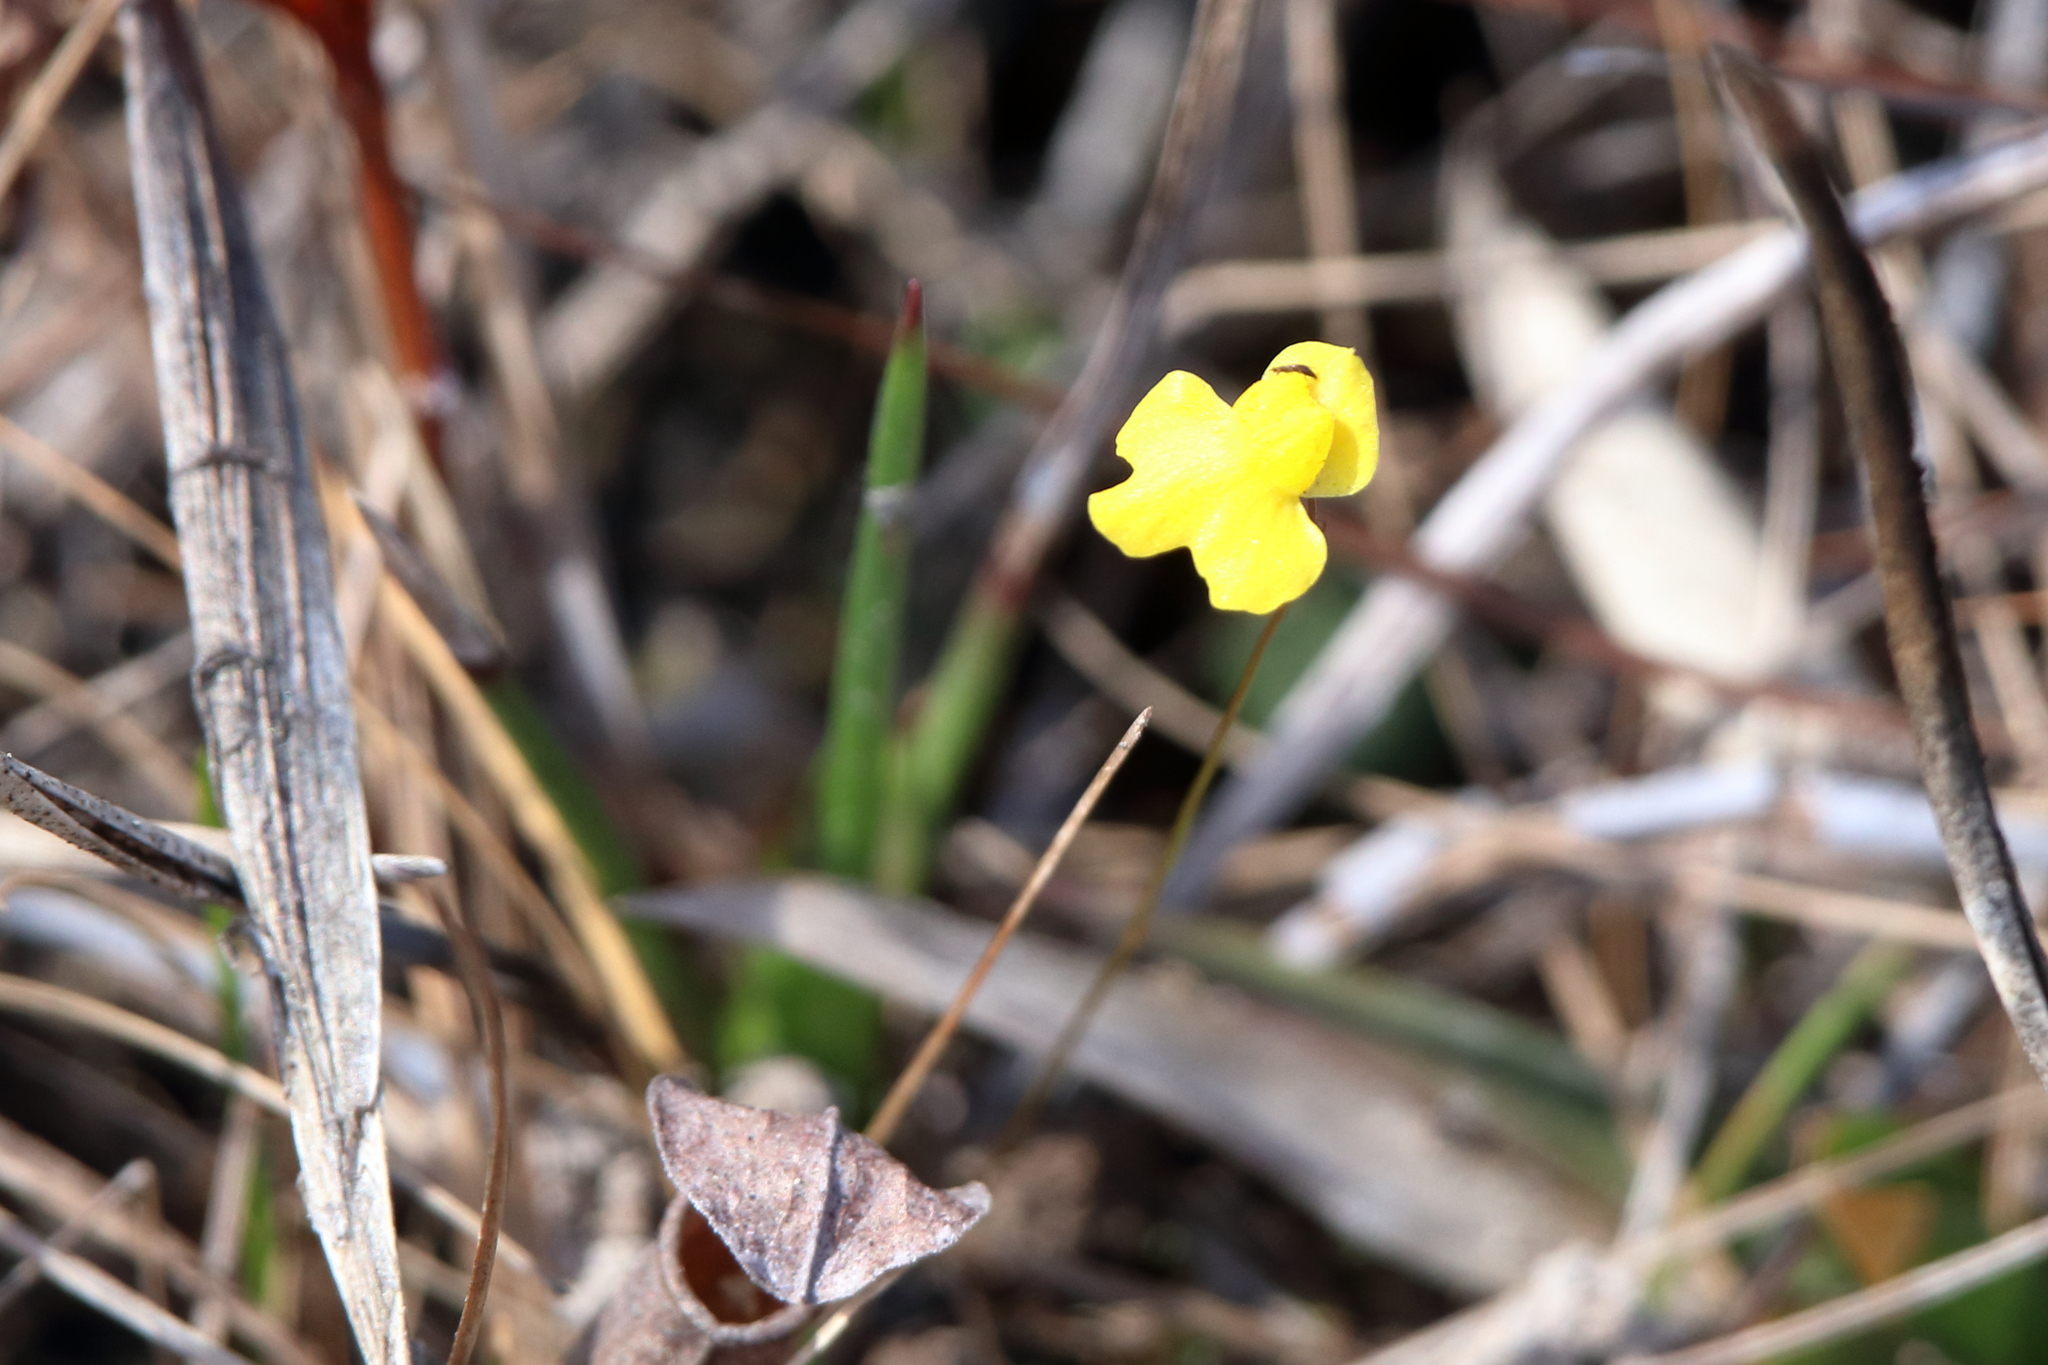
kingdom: Plantae
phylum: Tracheophyta
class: Magnoliopsida
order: Lamiales
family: Lentibulariaceae
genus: Utricularia
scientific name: Utricularia subulata
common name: Tiny bladderwort
